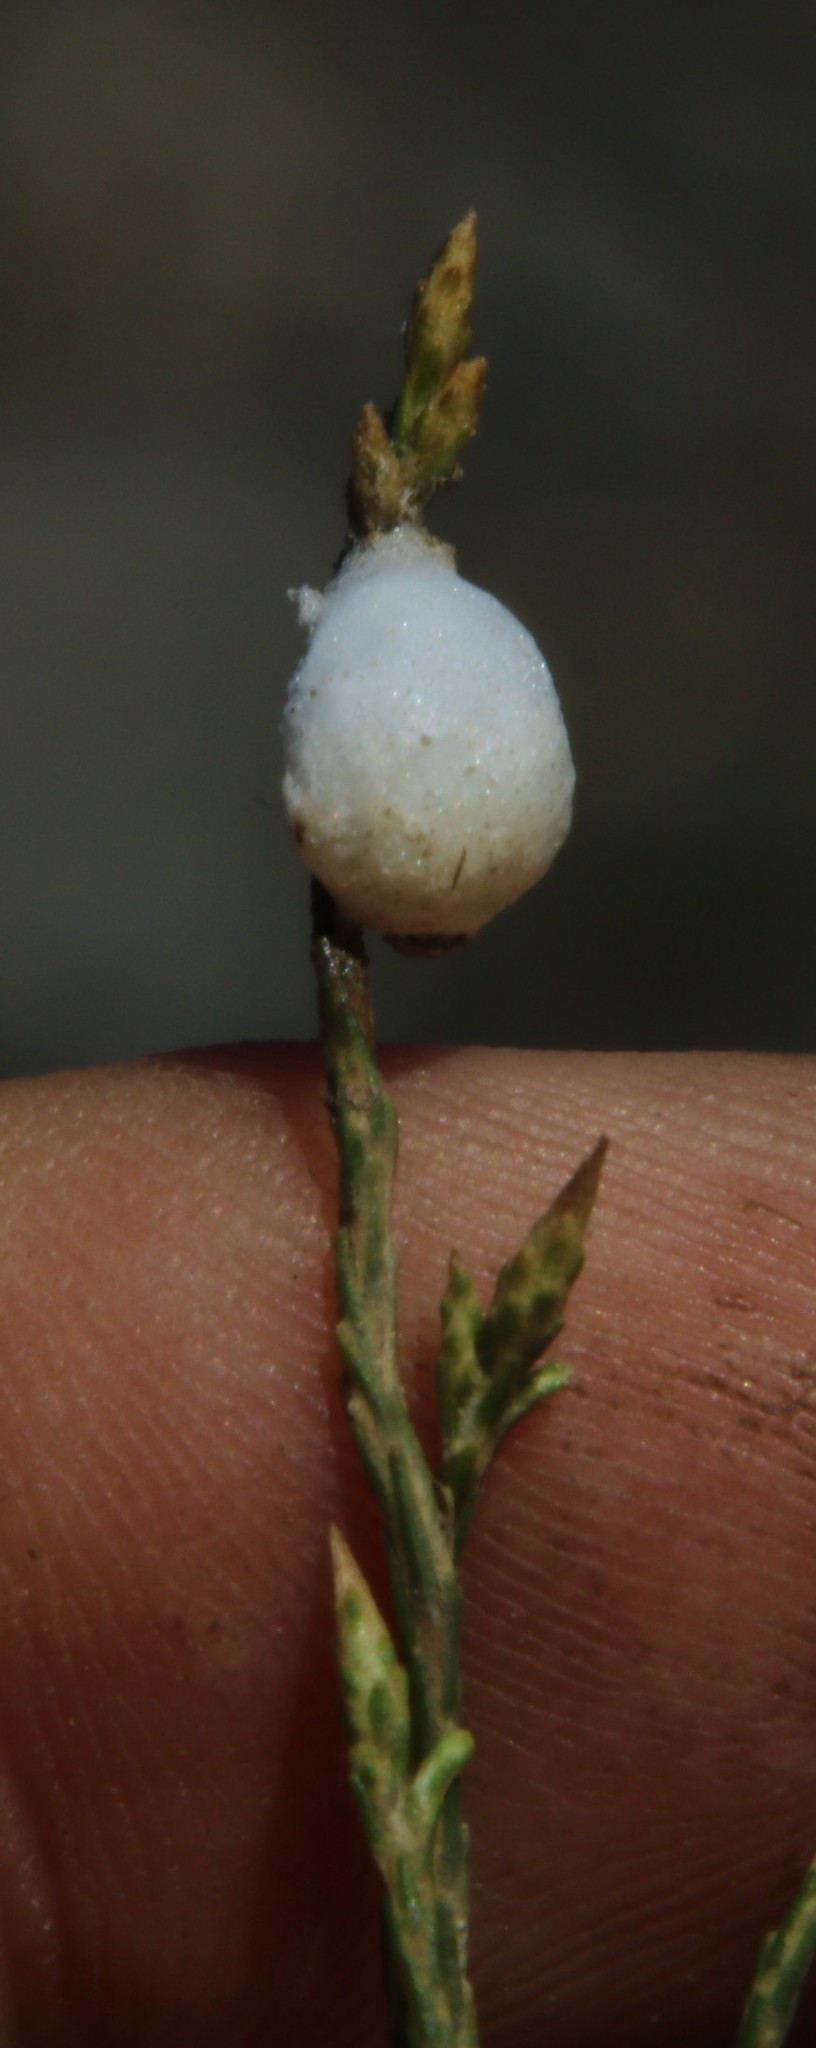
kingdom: Animalia
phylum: Arthropoda
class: Insecta
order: Hemiptera
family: Aphrophoridae
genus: Tremapterus
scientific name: Tremapterus
